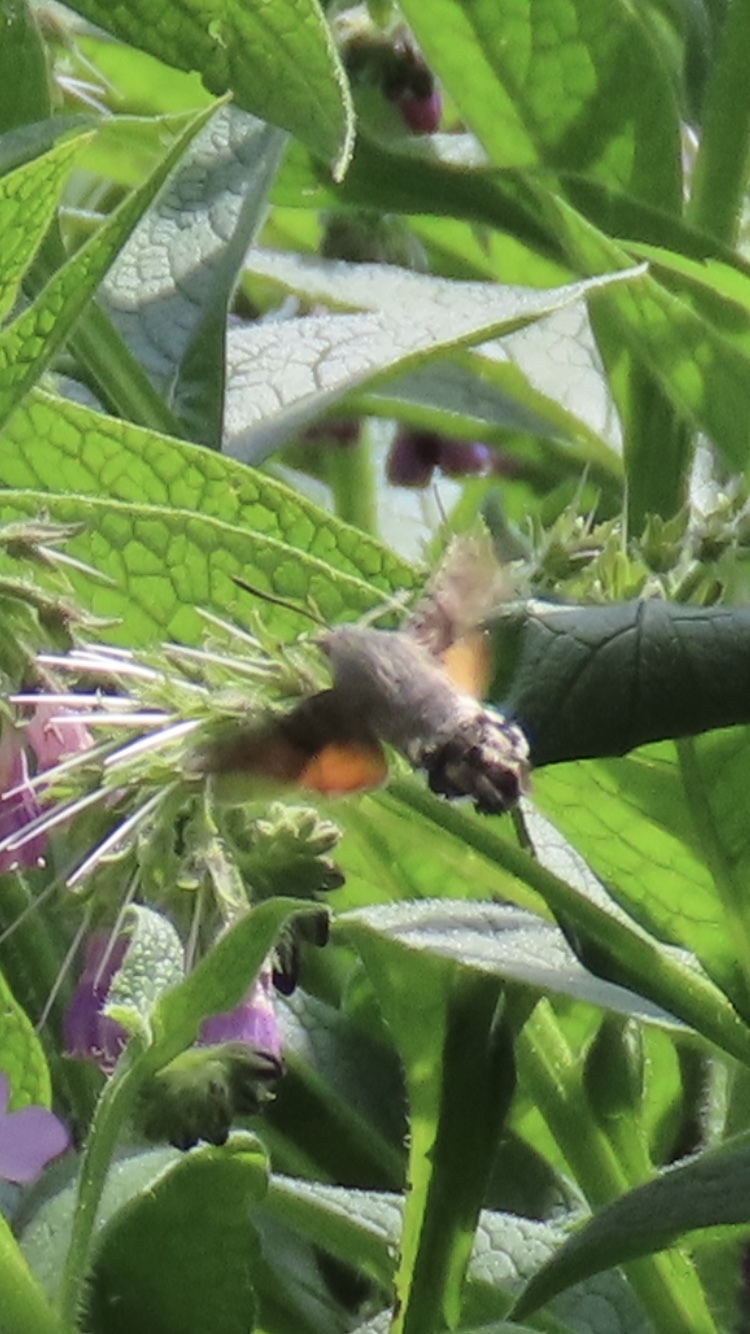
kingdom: Animalia
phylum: Arthropoda
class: Insecta
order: Lepidoptera
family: Sphingidae
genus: Macroglossum
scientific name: Macroglossum stellatarum
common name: Humming-bird hawk-moth
